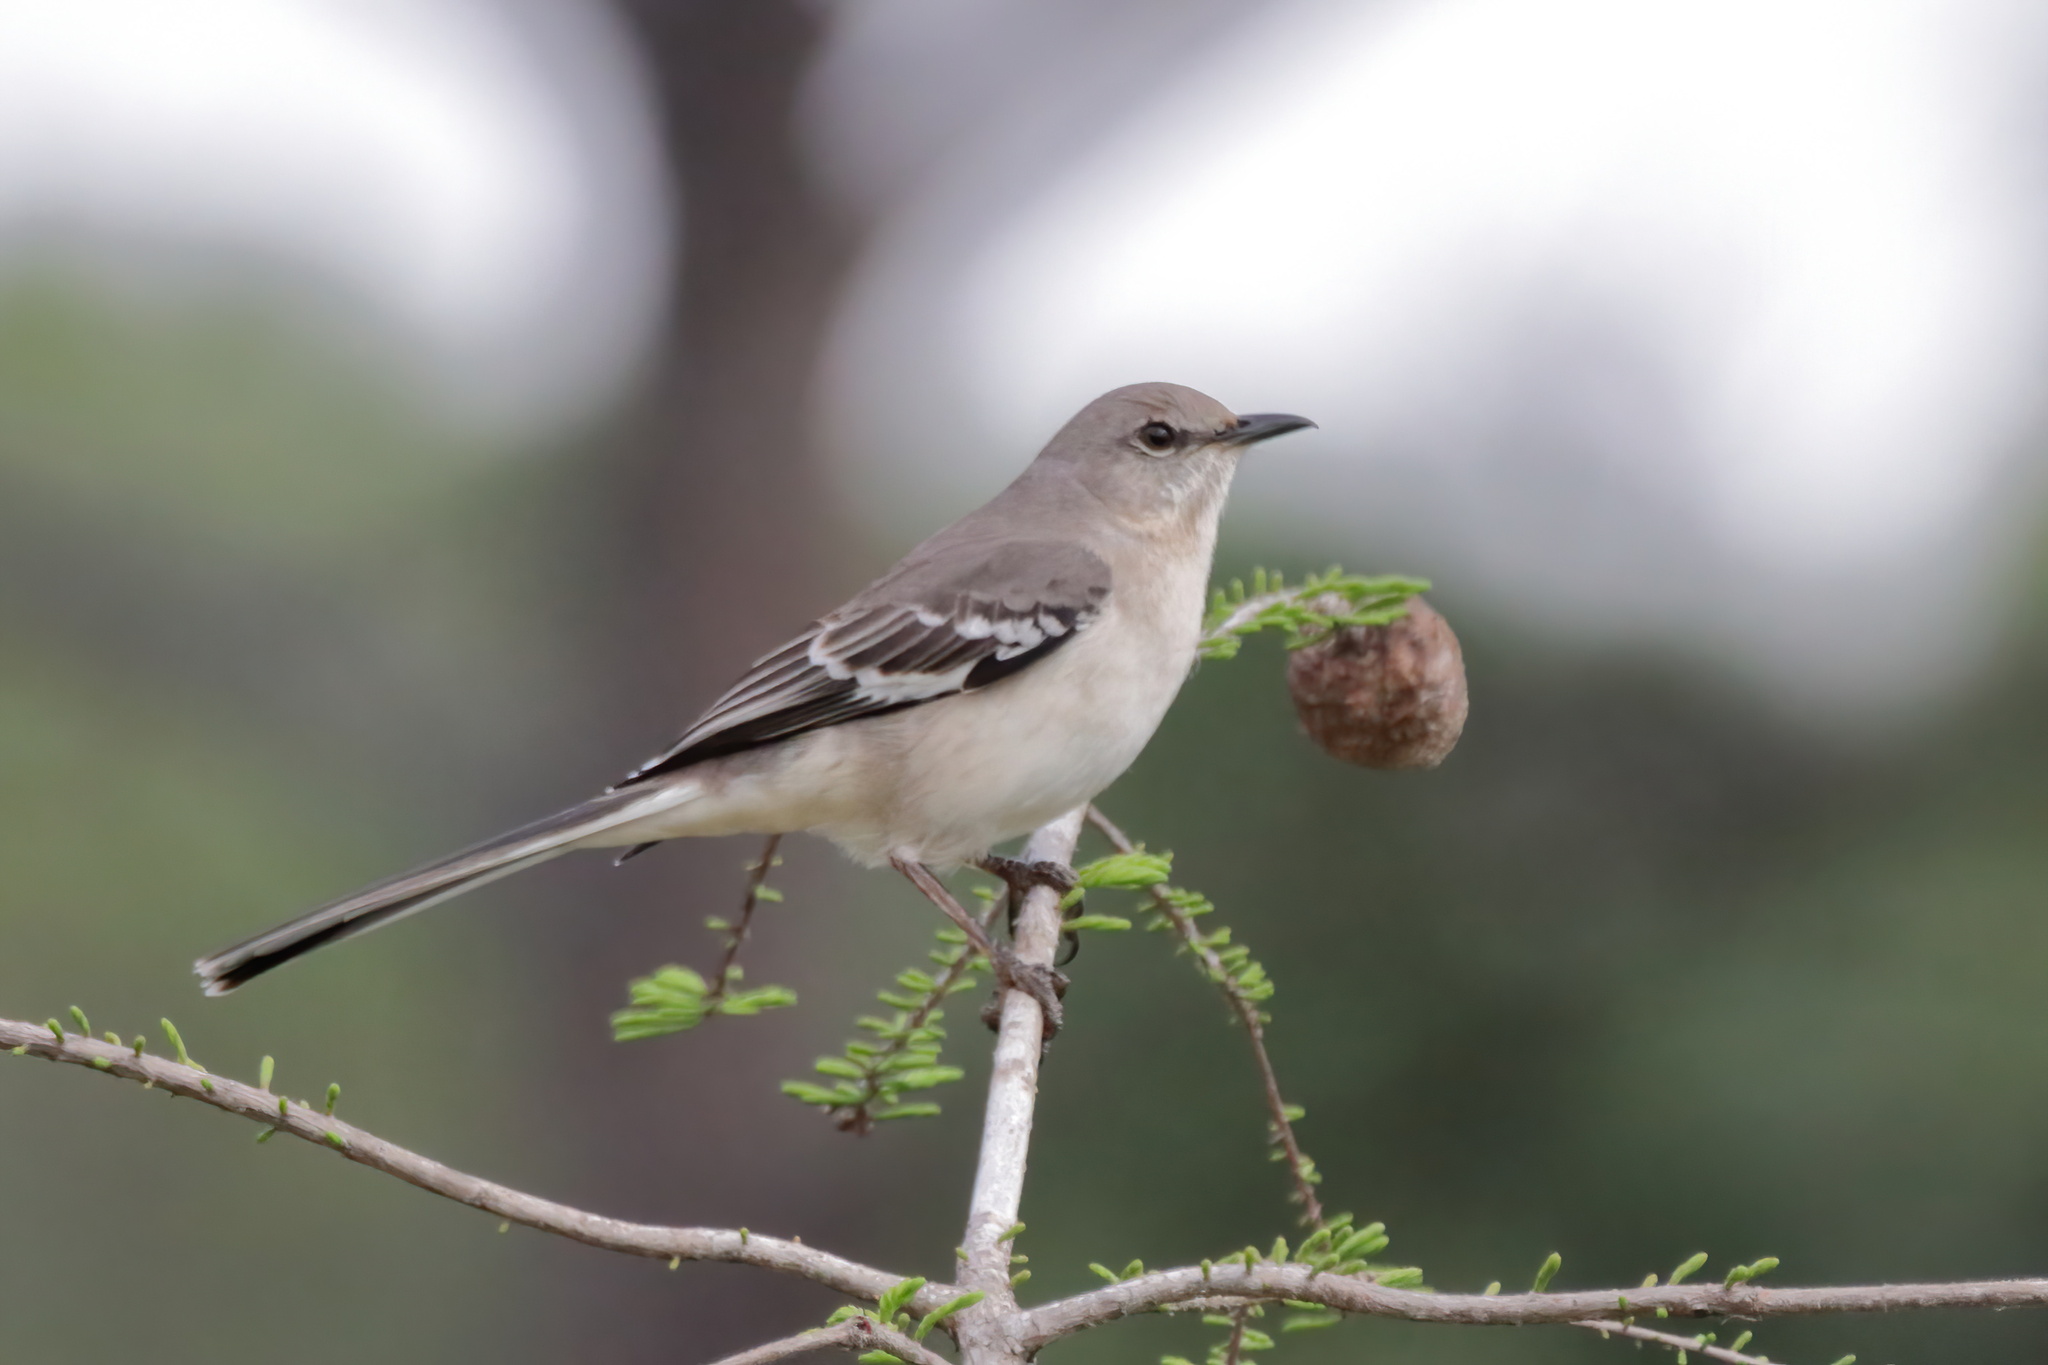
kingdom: Animalia
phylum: Chordata
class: Aves
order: Passeriformes
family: Mimidae
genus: Mimus
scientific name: Mimus polyglottos
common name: Northern mockingbird
